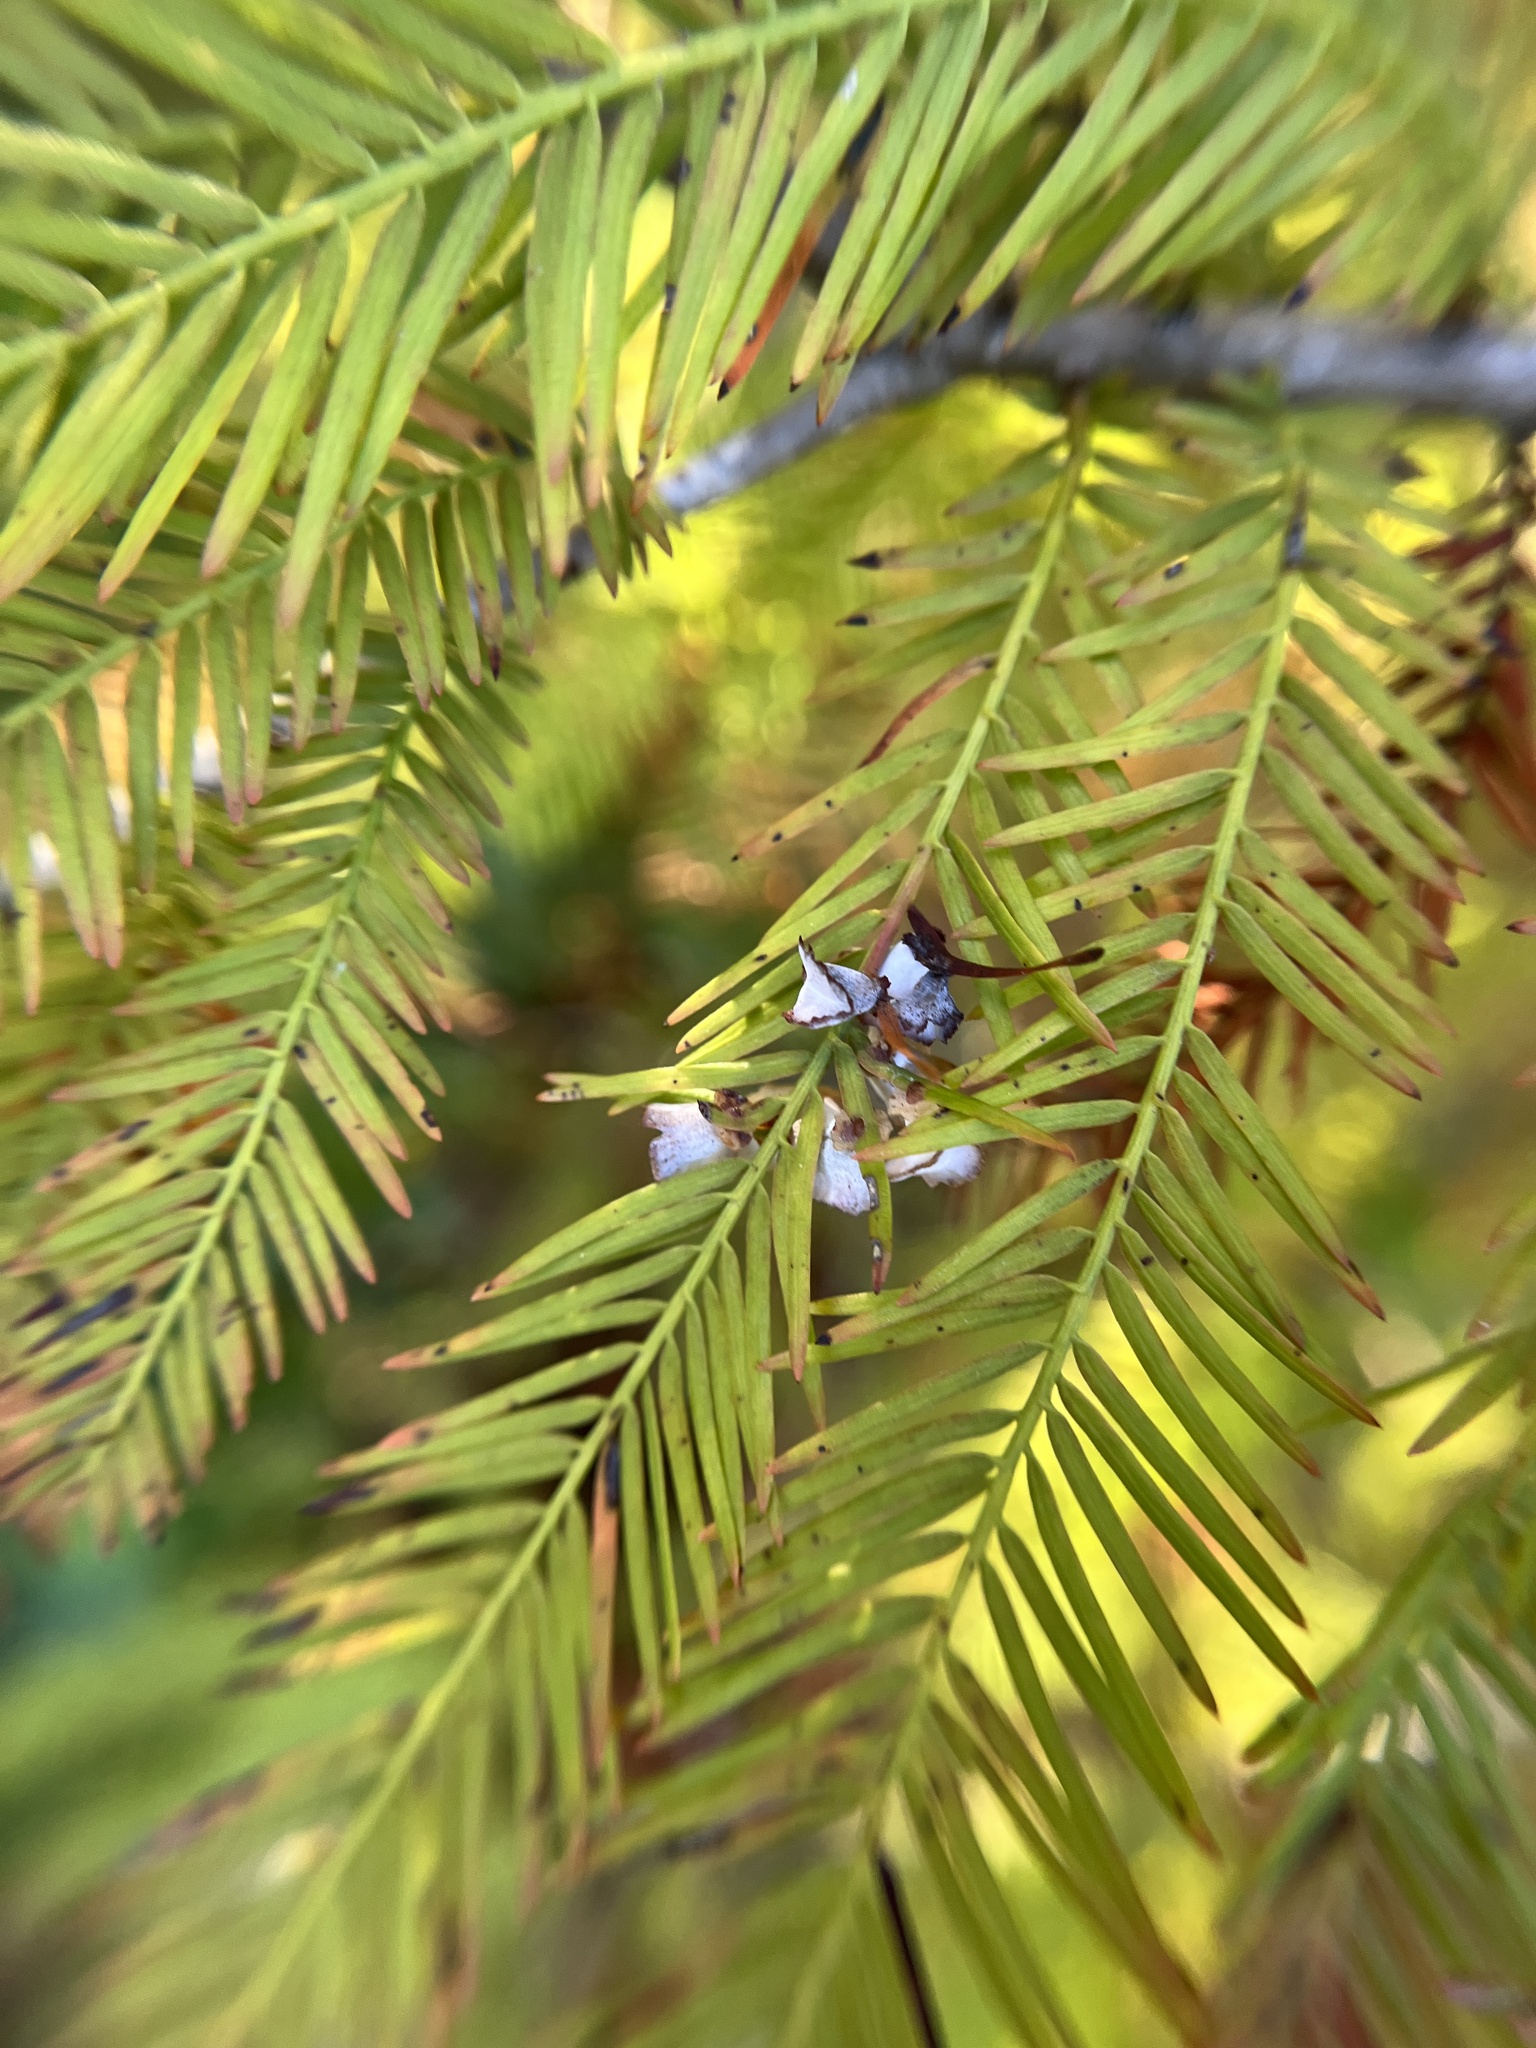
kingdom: Animalia
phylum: Arthropoda
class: Insecta
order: Diptera
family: Cecidomyiidae
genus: Taxodiomyia
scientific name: Taxodiomyia cupressi
